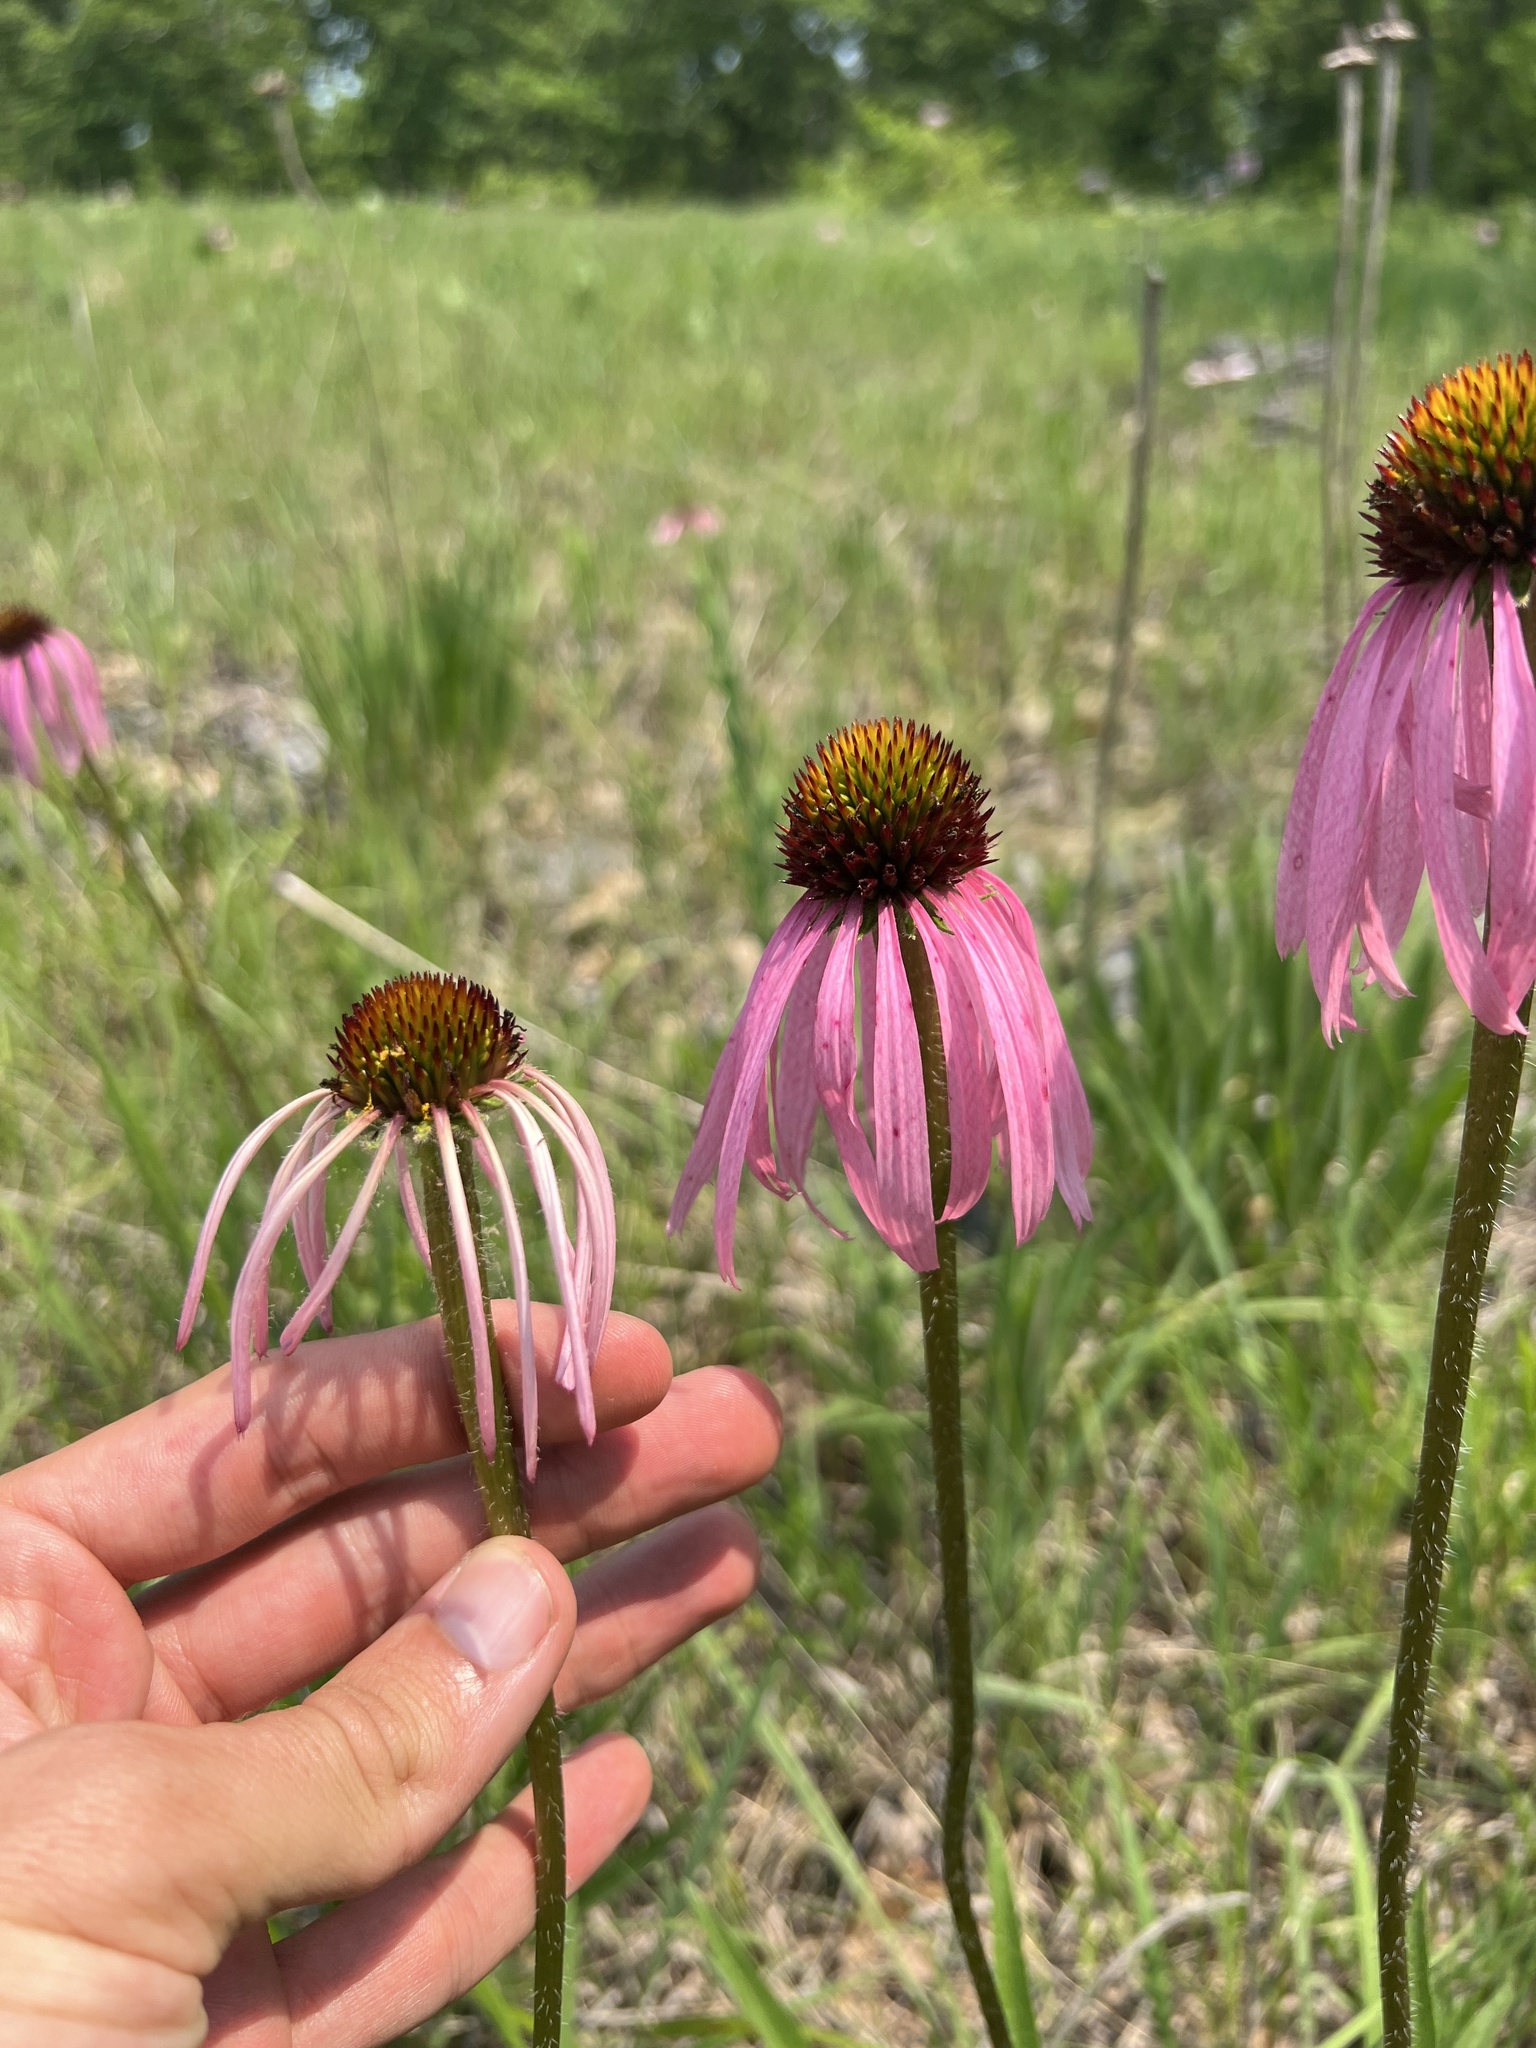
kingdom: Plantae
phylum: Tracheophyta
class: Magnoliopsida
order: Asterales
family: Asteraceae
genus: Echinacea
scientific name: Echinacea simulata
